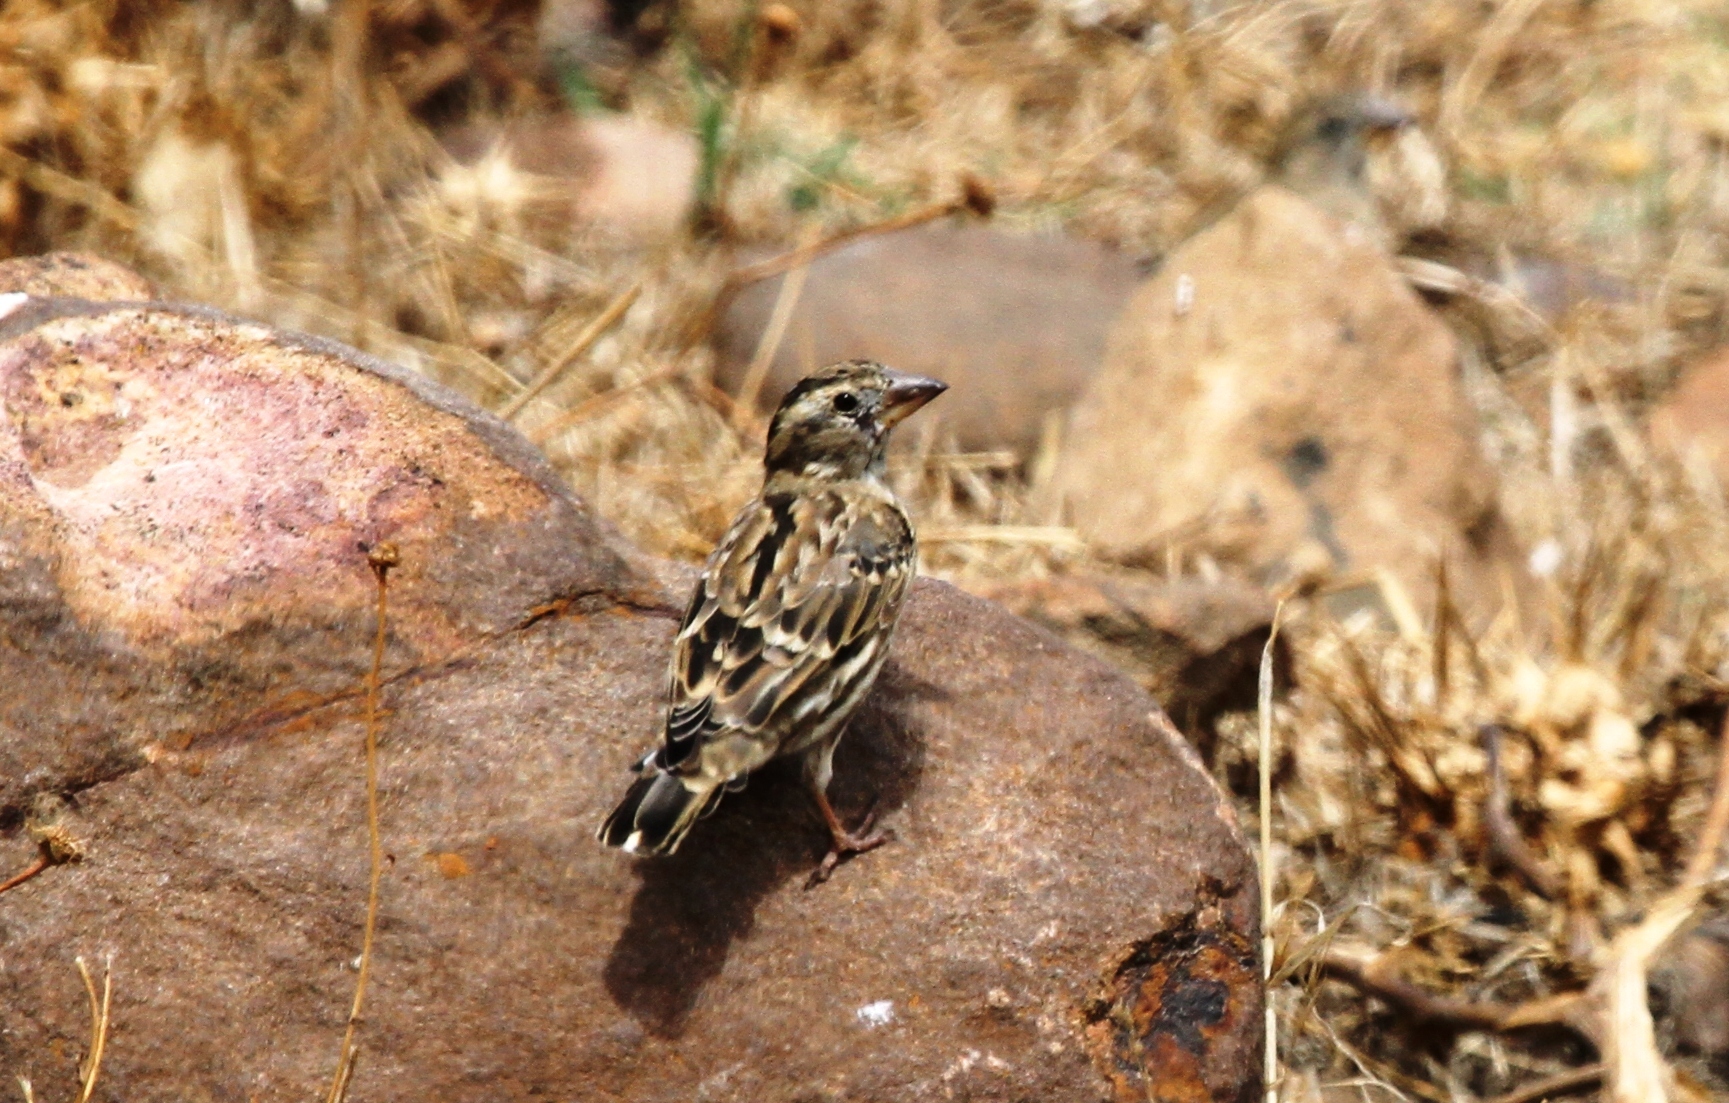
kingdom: Animalia
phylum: Chordata
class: Aves
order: Passeriformes
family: Passeridae
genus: Petronia
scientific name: Petronia petronia
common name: Rock sparrow
